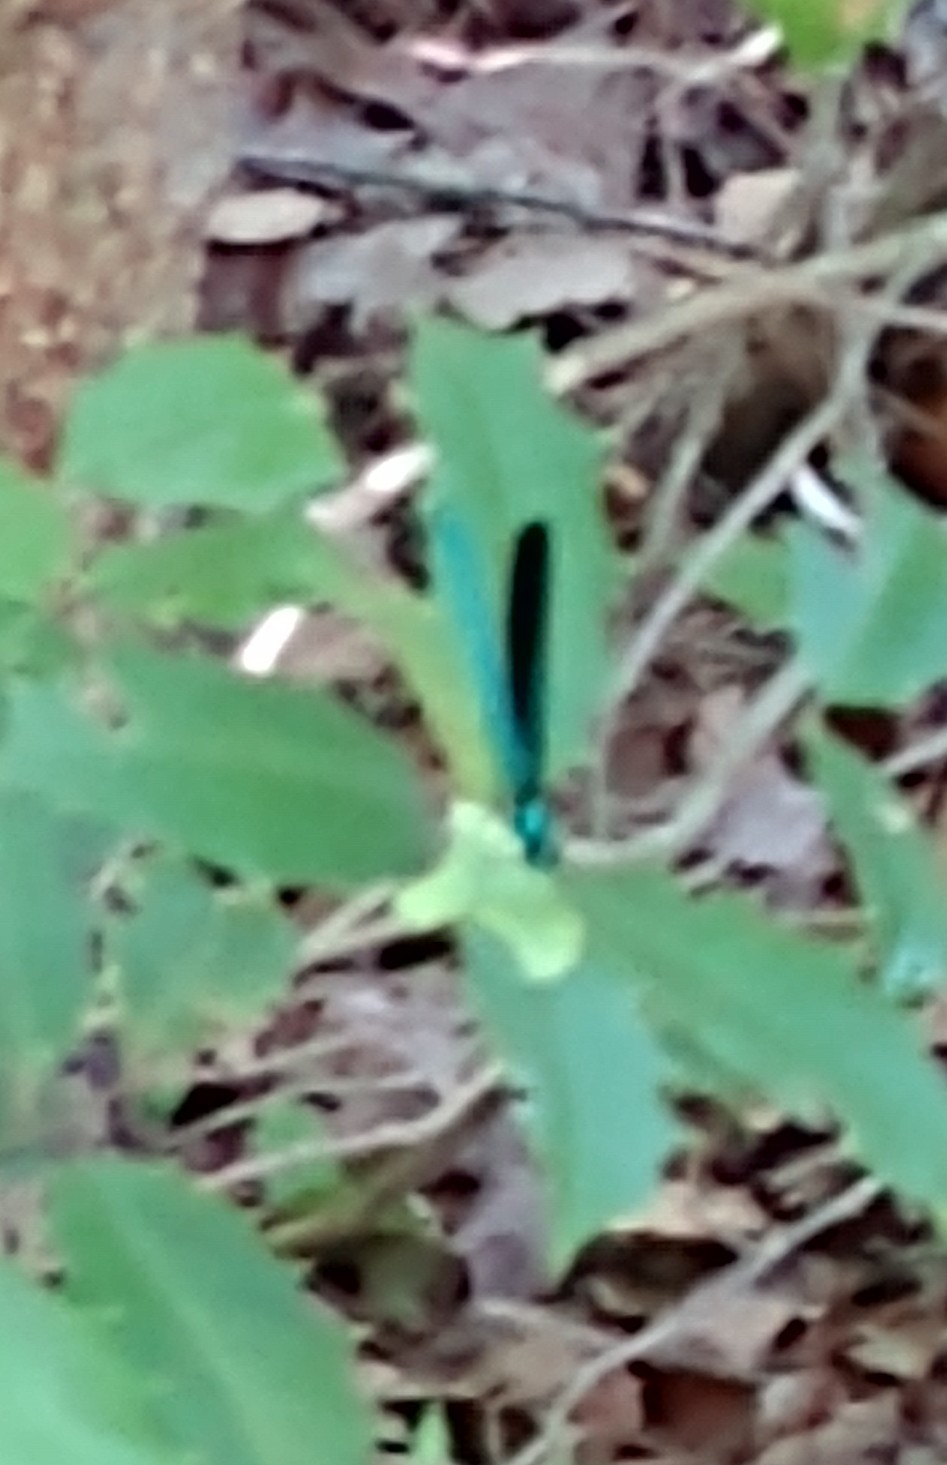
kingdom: Animalia
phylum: Arthropoda
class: Insecta
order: Odonata
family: Calopterygidae
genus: Calopteryx
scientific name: Calopteryx maculata
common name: Ebony jewelwing
